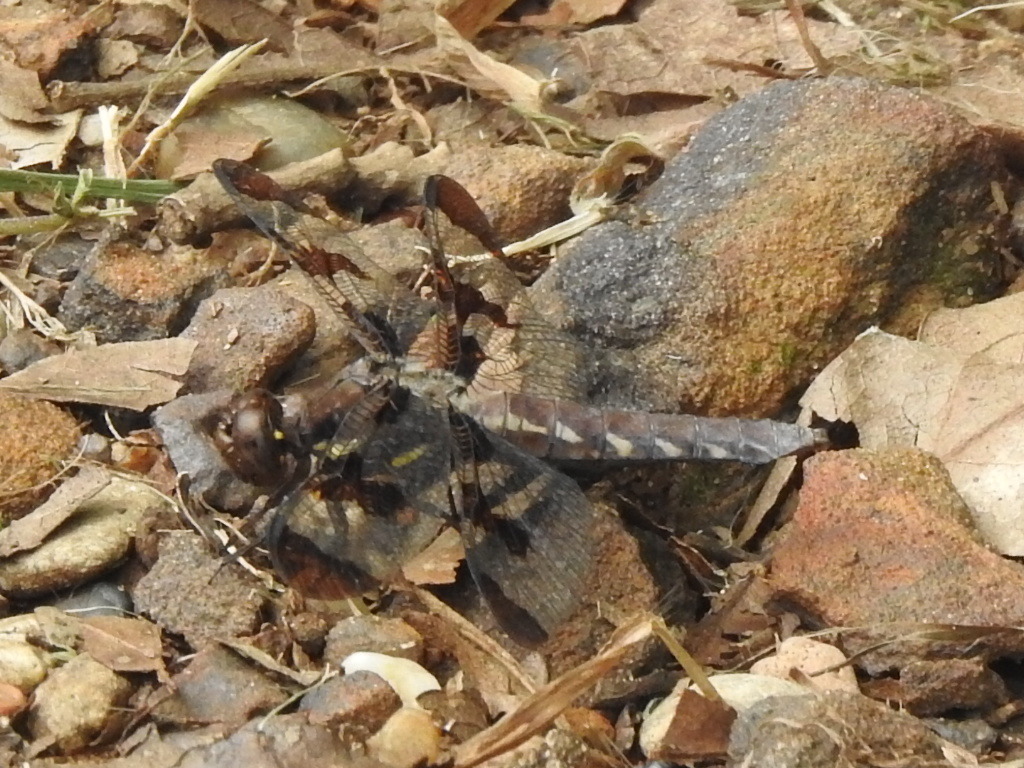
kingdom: Animalia
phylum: Arthropoda
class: Insecta
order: Odonata
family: Libellulidae
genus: Plathemis
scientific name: Plathemis lydia
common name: Common whitetail
